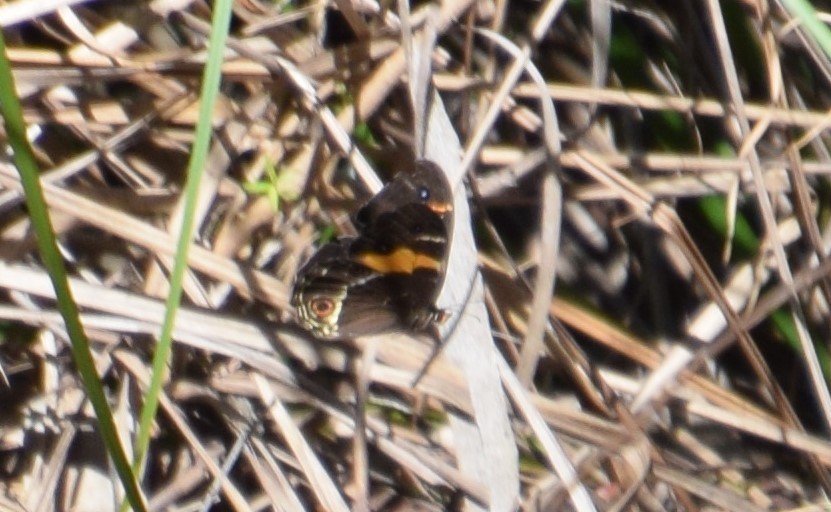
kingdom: Animalia
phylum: Arthropoda
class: Insecta
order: Lepidoptera
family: Nymphalidae
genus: Tisiphone
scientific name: Tisiphone abeona
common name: Swordgrass brown
